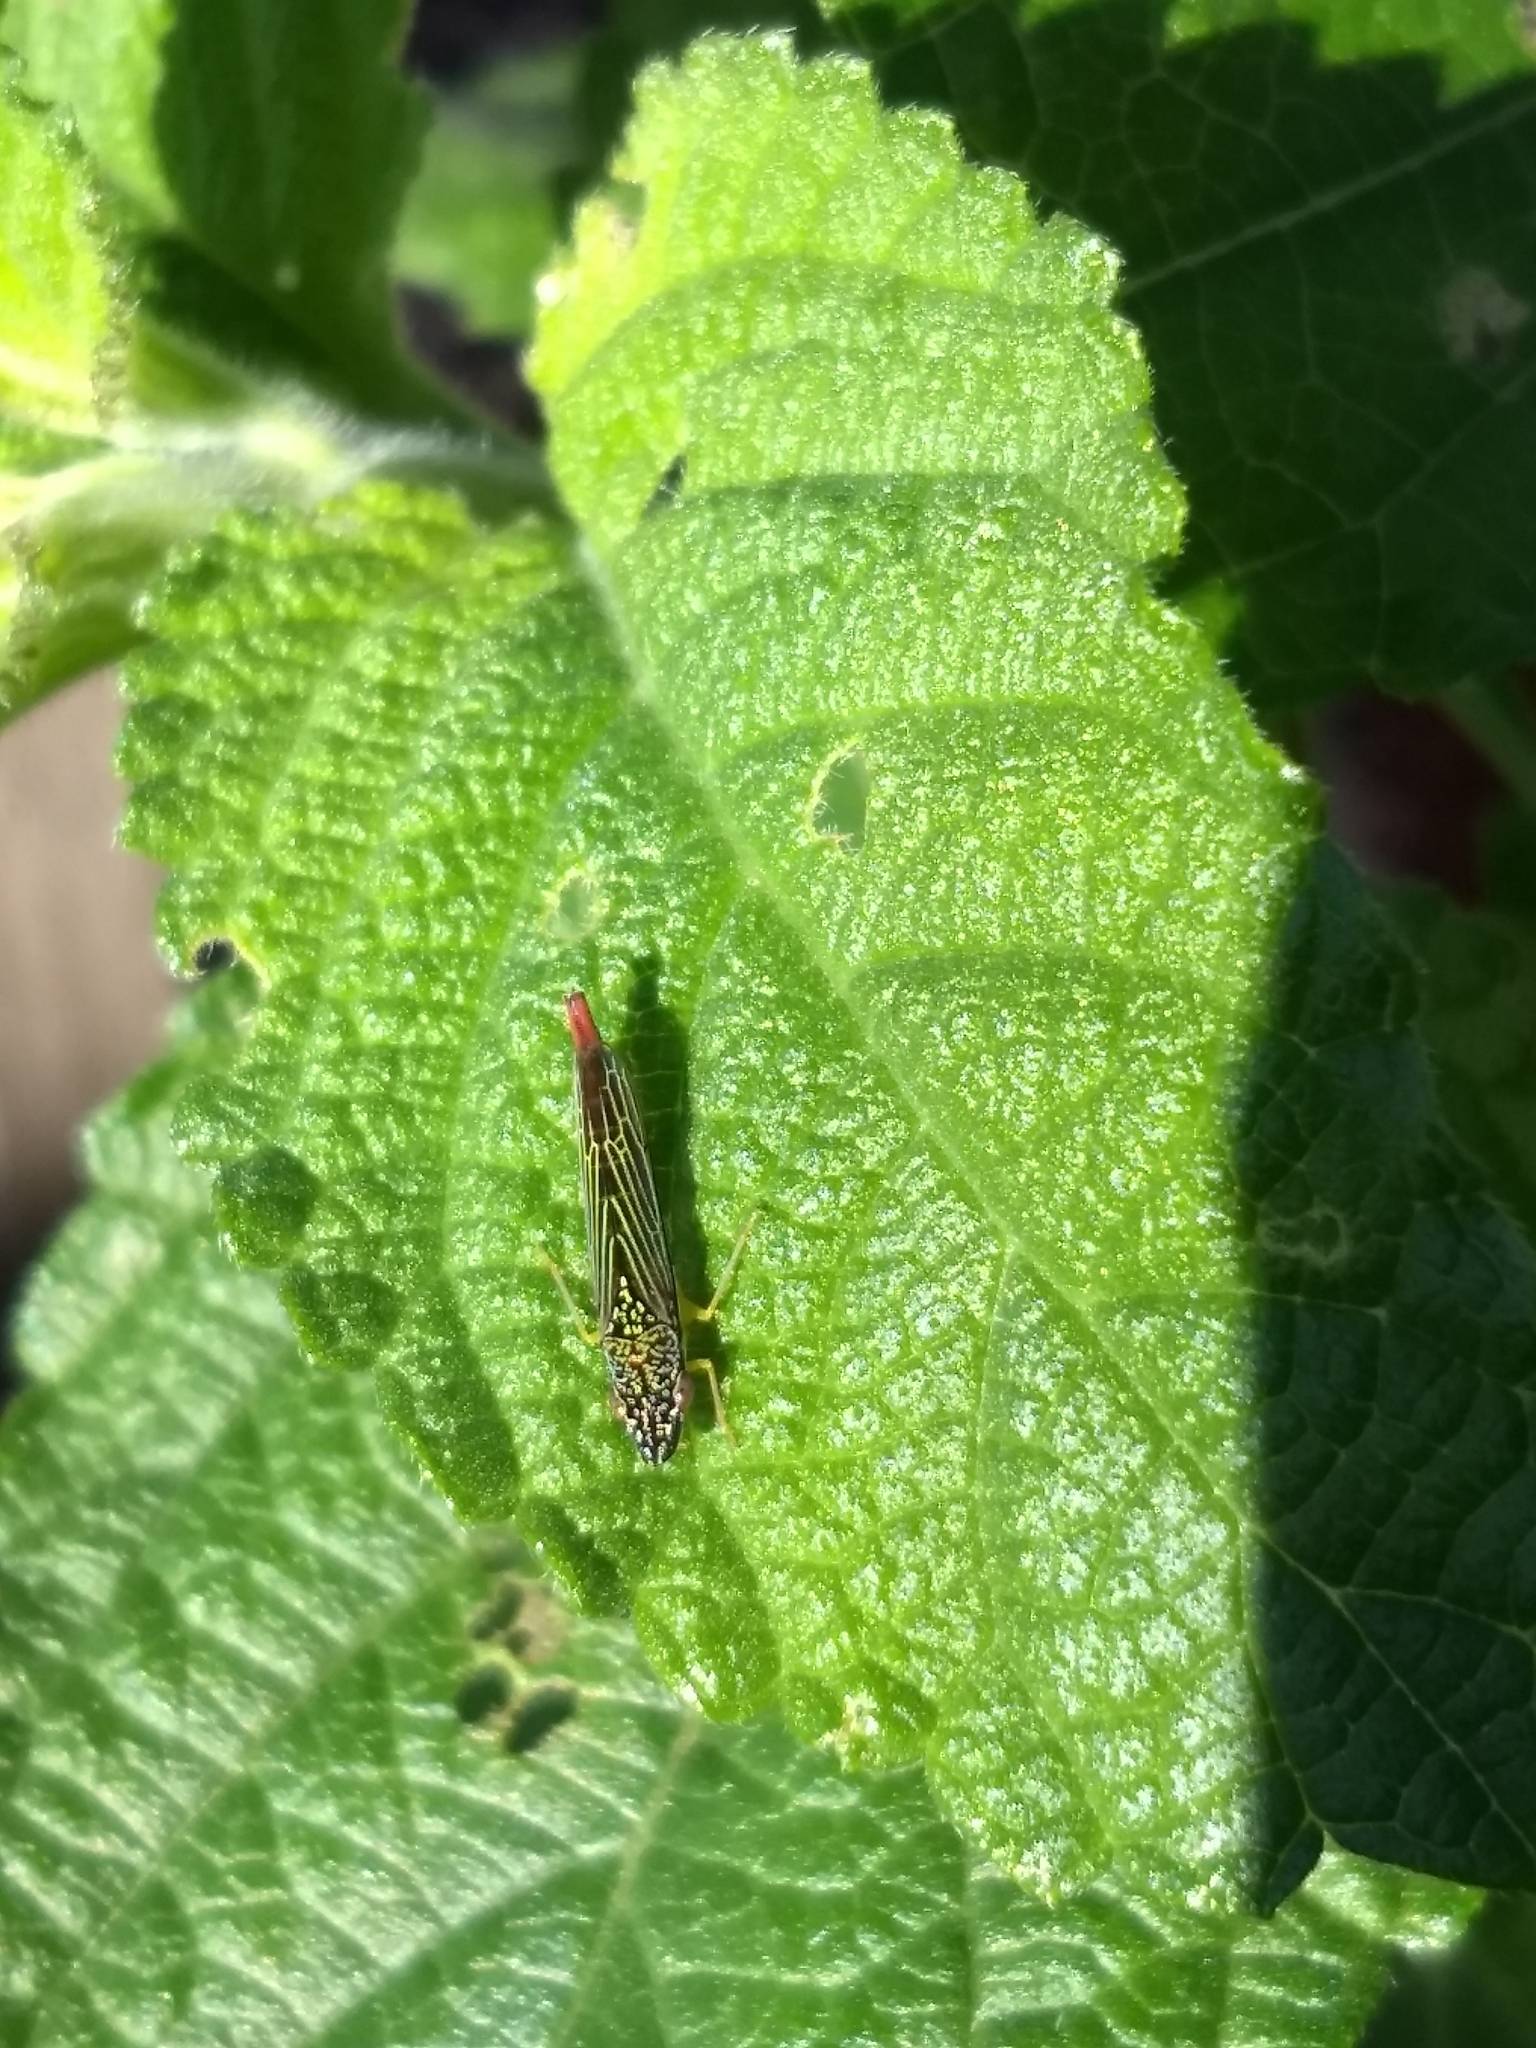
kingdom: Animalia
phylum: Arthropoda
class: Insecta
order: Hemiptera
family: Cicadellidae
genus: Acrogonia
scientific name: Acrogonia citrina
